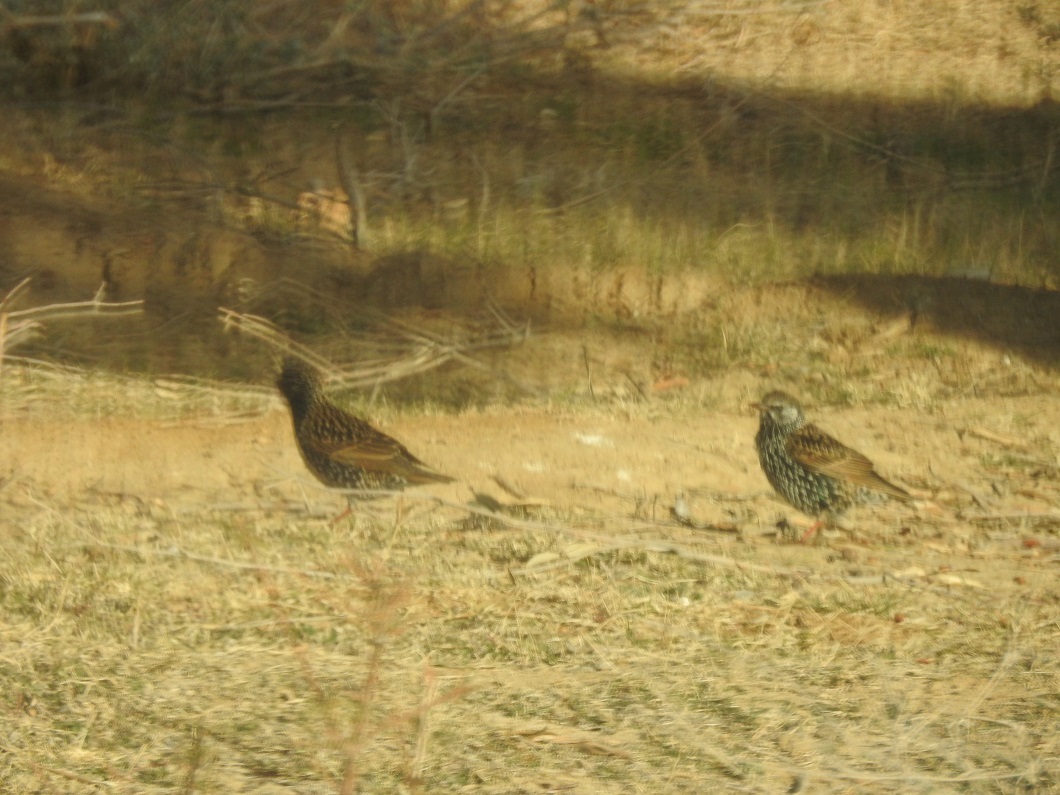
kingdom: Animalia
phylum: Chordata
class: Aves
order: Passeriformes
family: Sturnidae
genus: Sturnus
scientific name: Sturnus vulgaris
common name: Common starling
